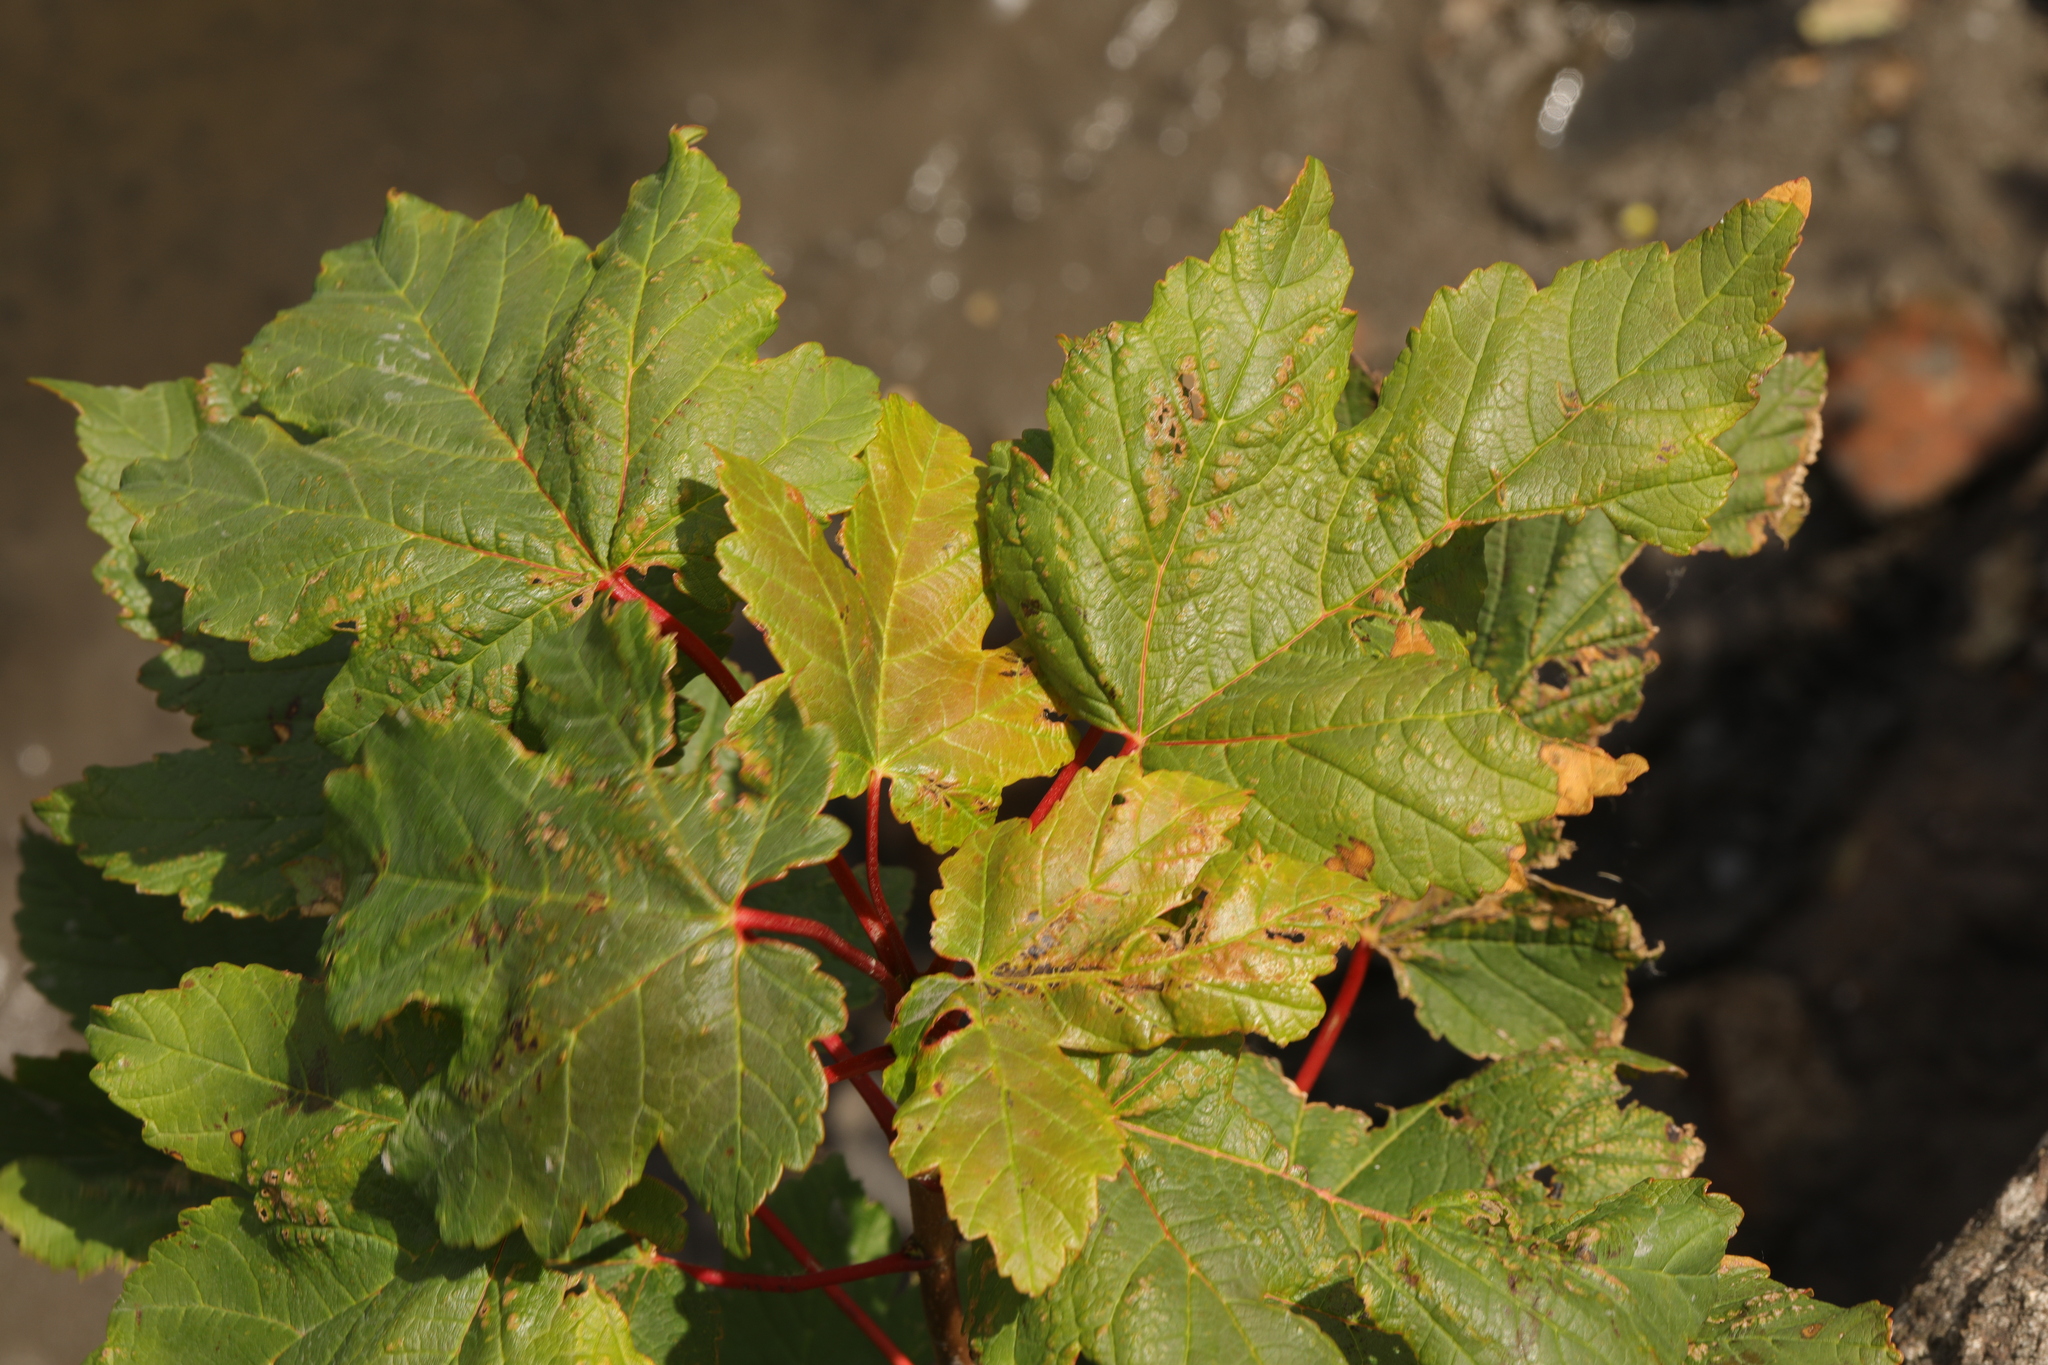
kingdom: Plantae
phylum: Tracheophyta
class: Magnoliopsida
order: Sapindales
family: Sapindaceae
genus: Acer
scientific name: Acer pseudoplatanus
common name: Sycamore
